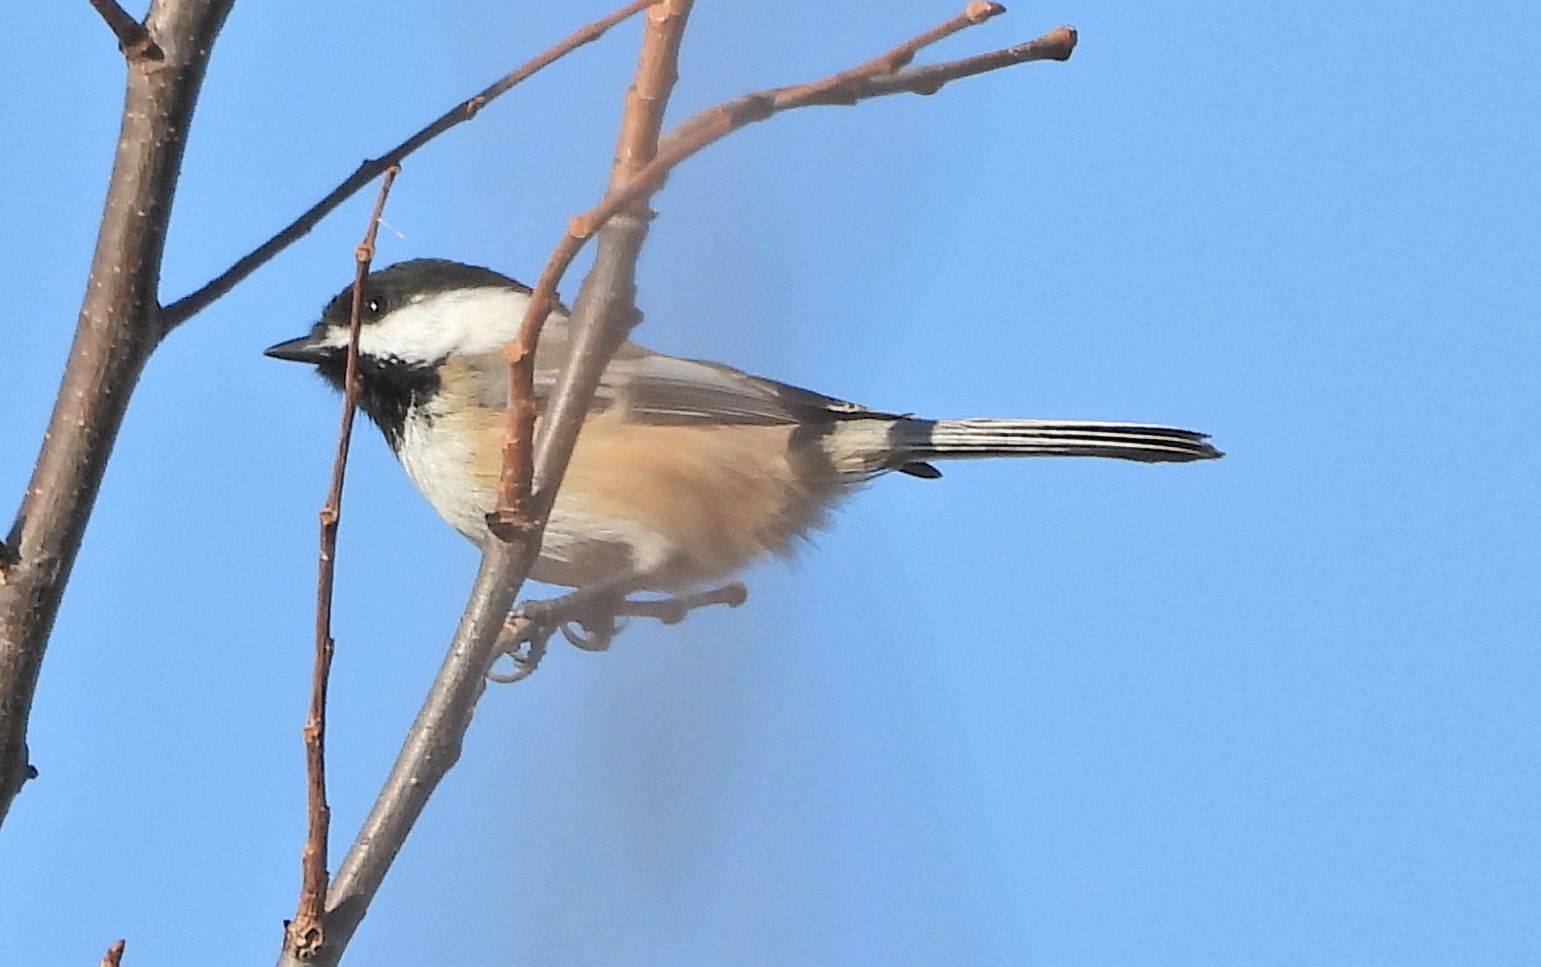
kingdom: Animalia
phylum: Chordata
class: Aves
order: Passeriformes
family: Paridae
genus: Poecile
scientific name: Poecile atricapillus
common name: Black-capped chickadee
